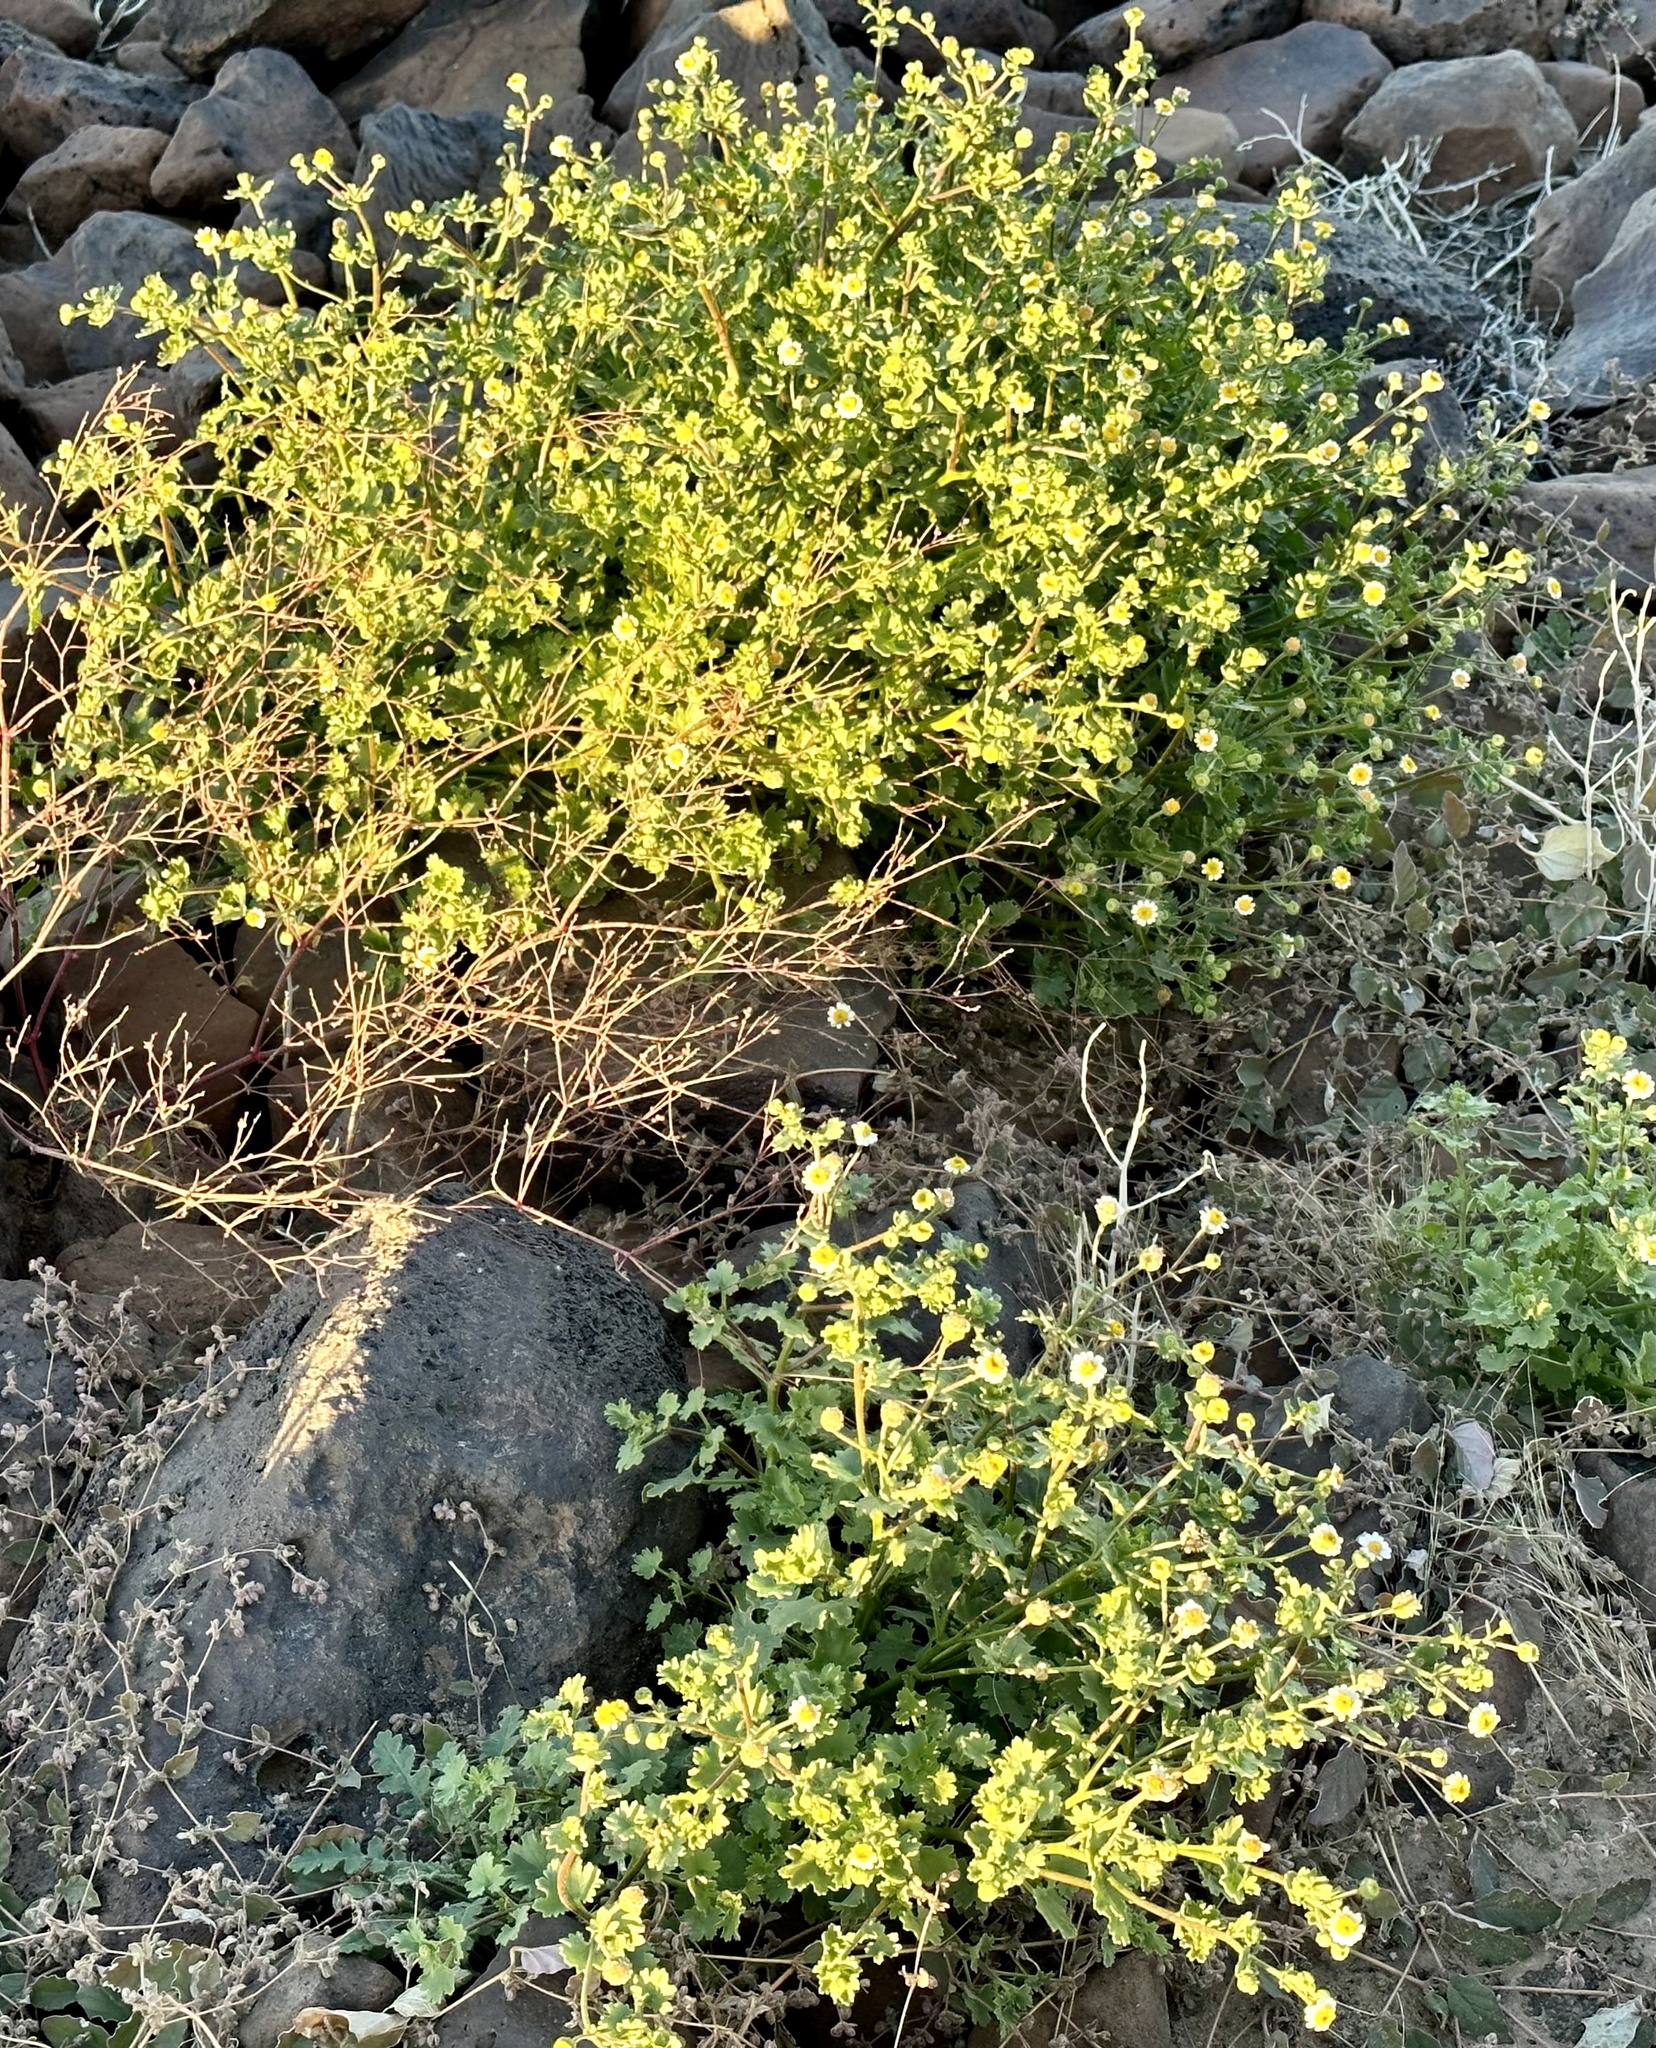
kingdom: Plantae
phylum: Tracheophyta
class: Magnoliopsida
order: Asterales
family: Asteraceae
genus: Laphamia
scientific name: Laphamia emoryi
